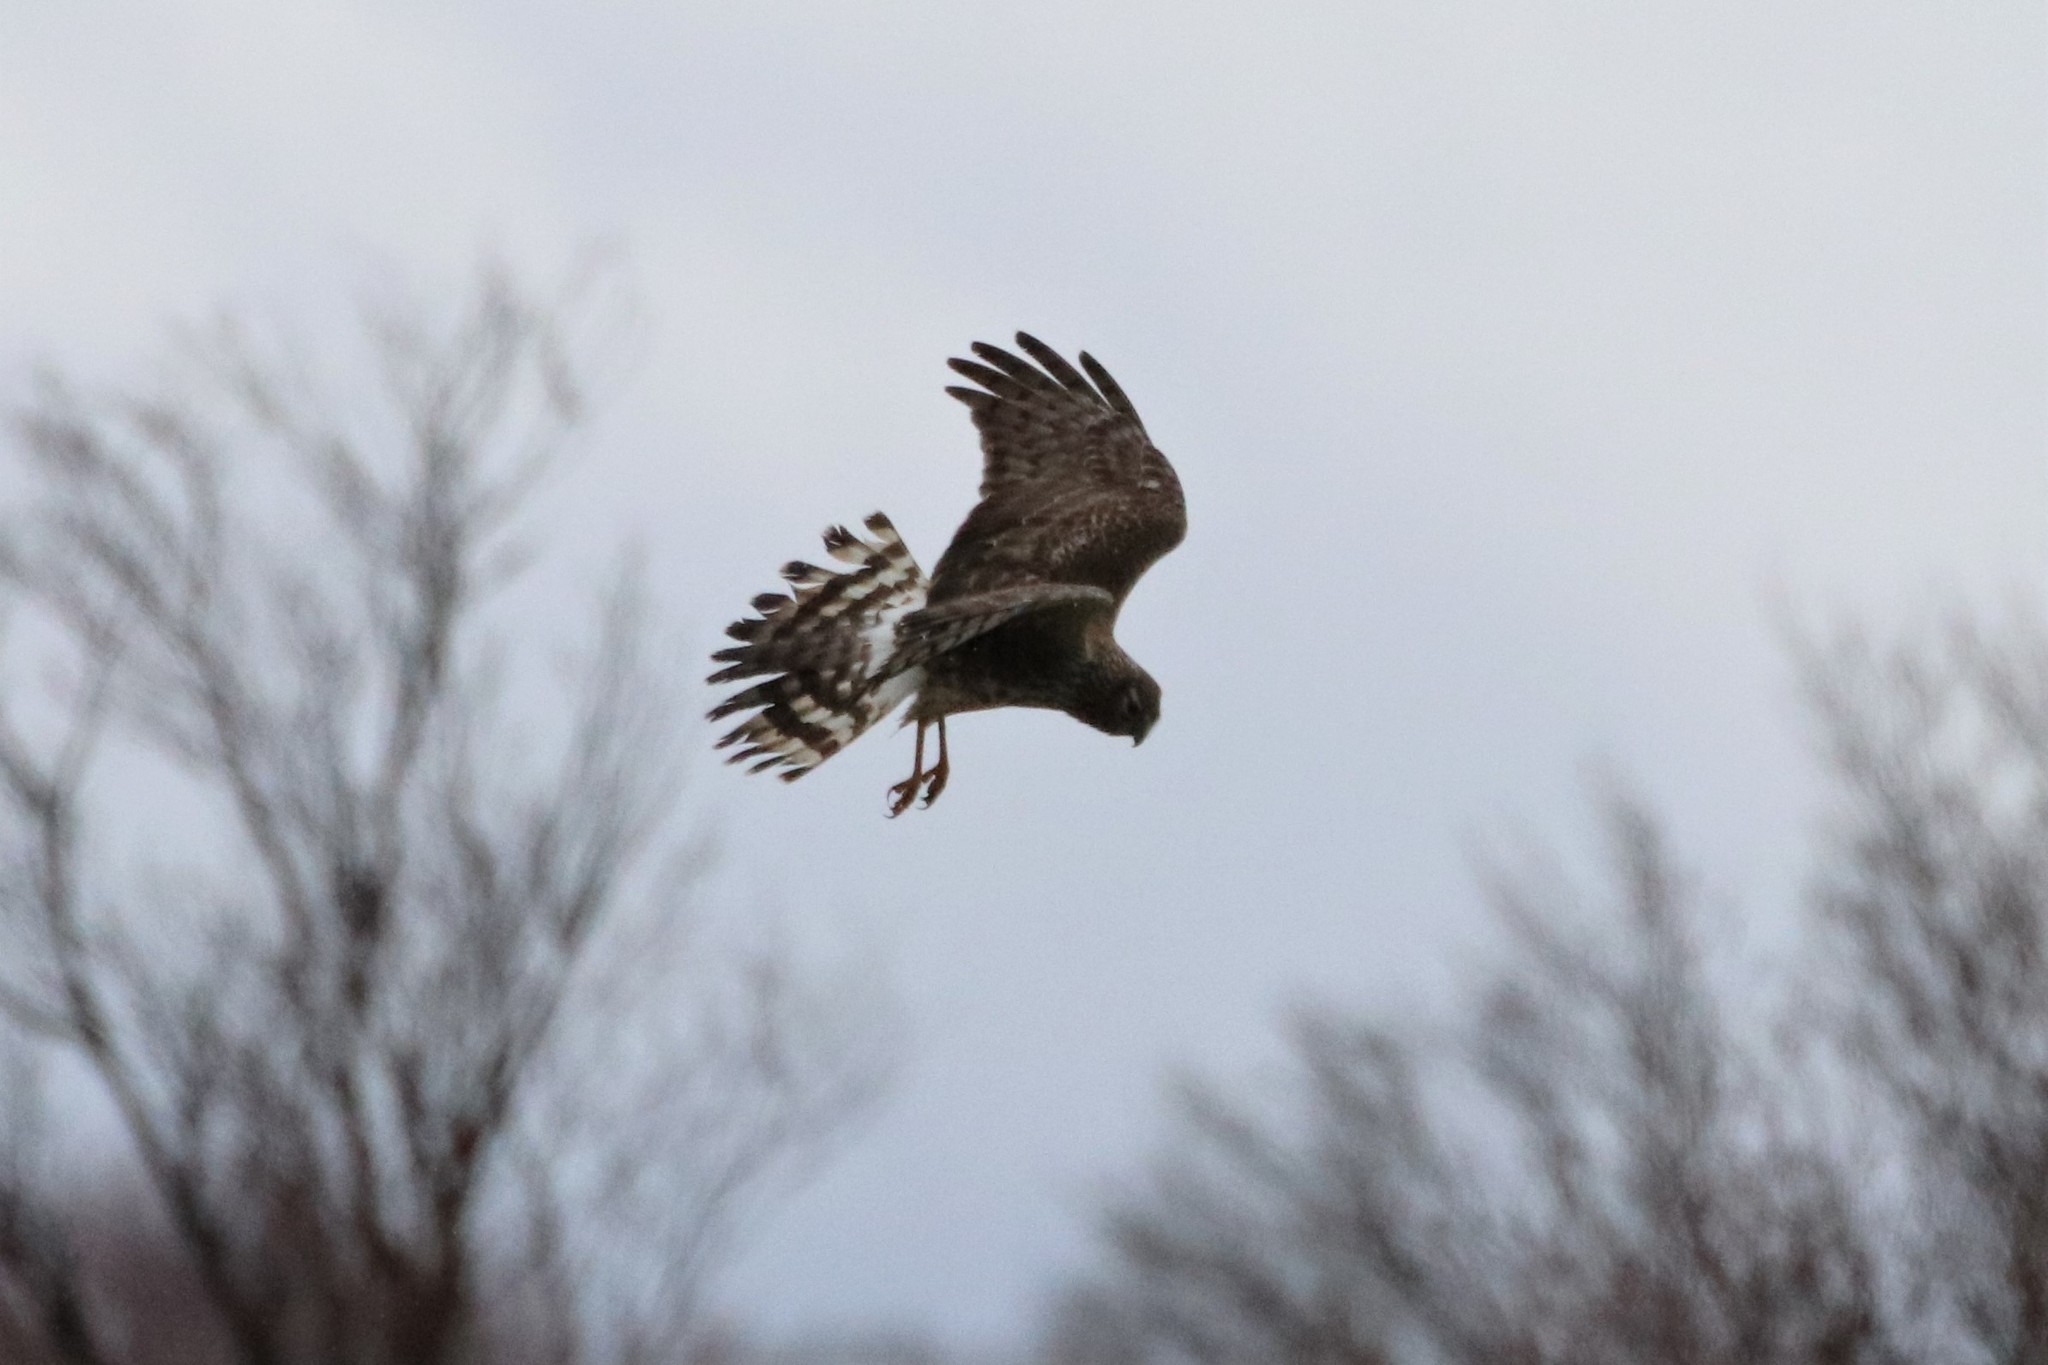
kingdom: Animalia
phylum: Chordata
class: Aves
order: Accipitriformes
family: Accipitridae
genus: Circus
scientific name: Circus cyaneus
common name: Hen harrier
